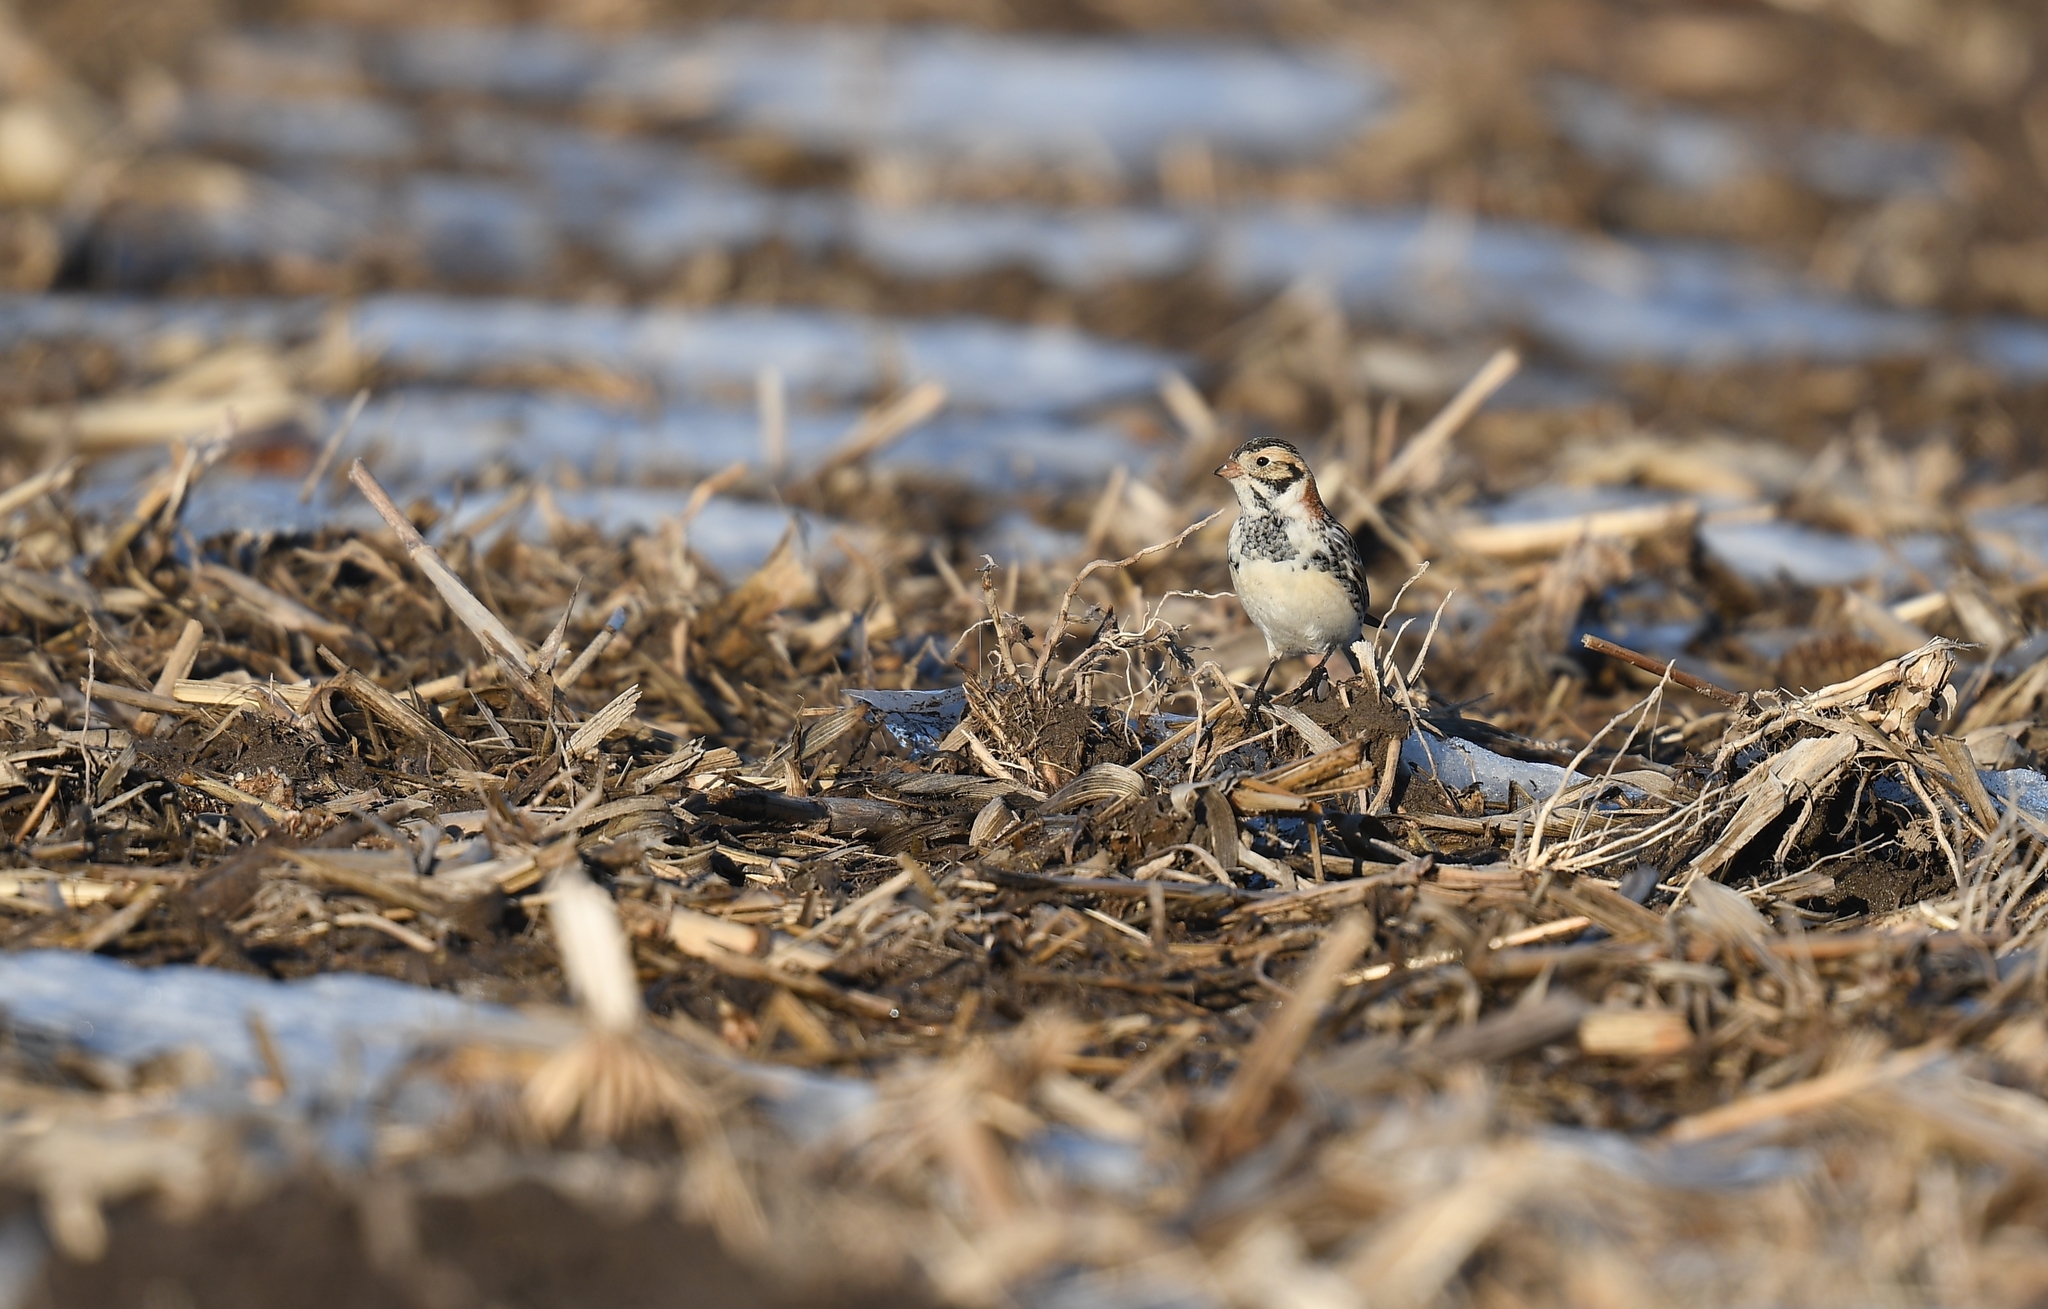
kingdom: Animalia
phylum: Chordata
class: Aves
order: Passeriformes
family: Calcariidae
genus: Calcarius
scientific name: Calcarius lapponicus
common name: Lapland longspur
